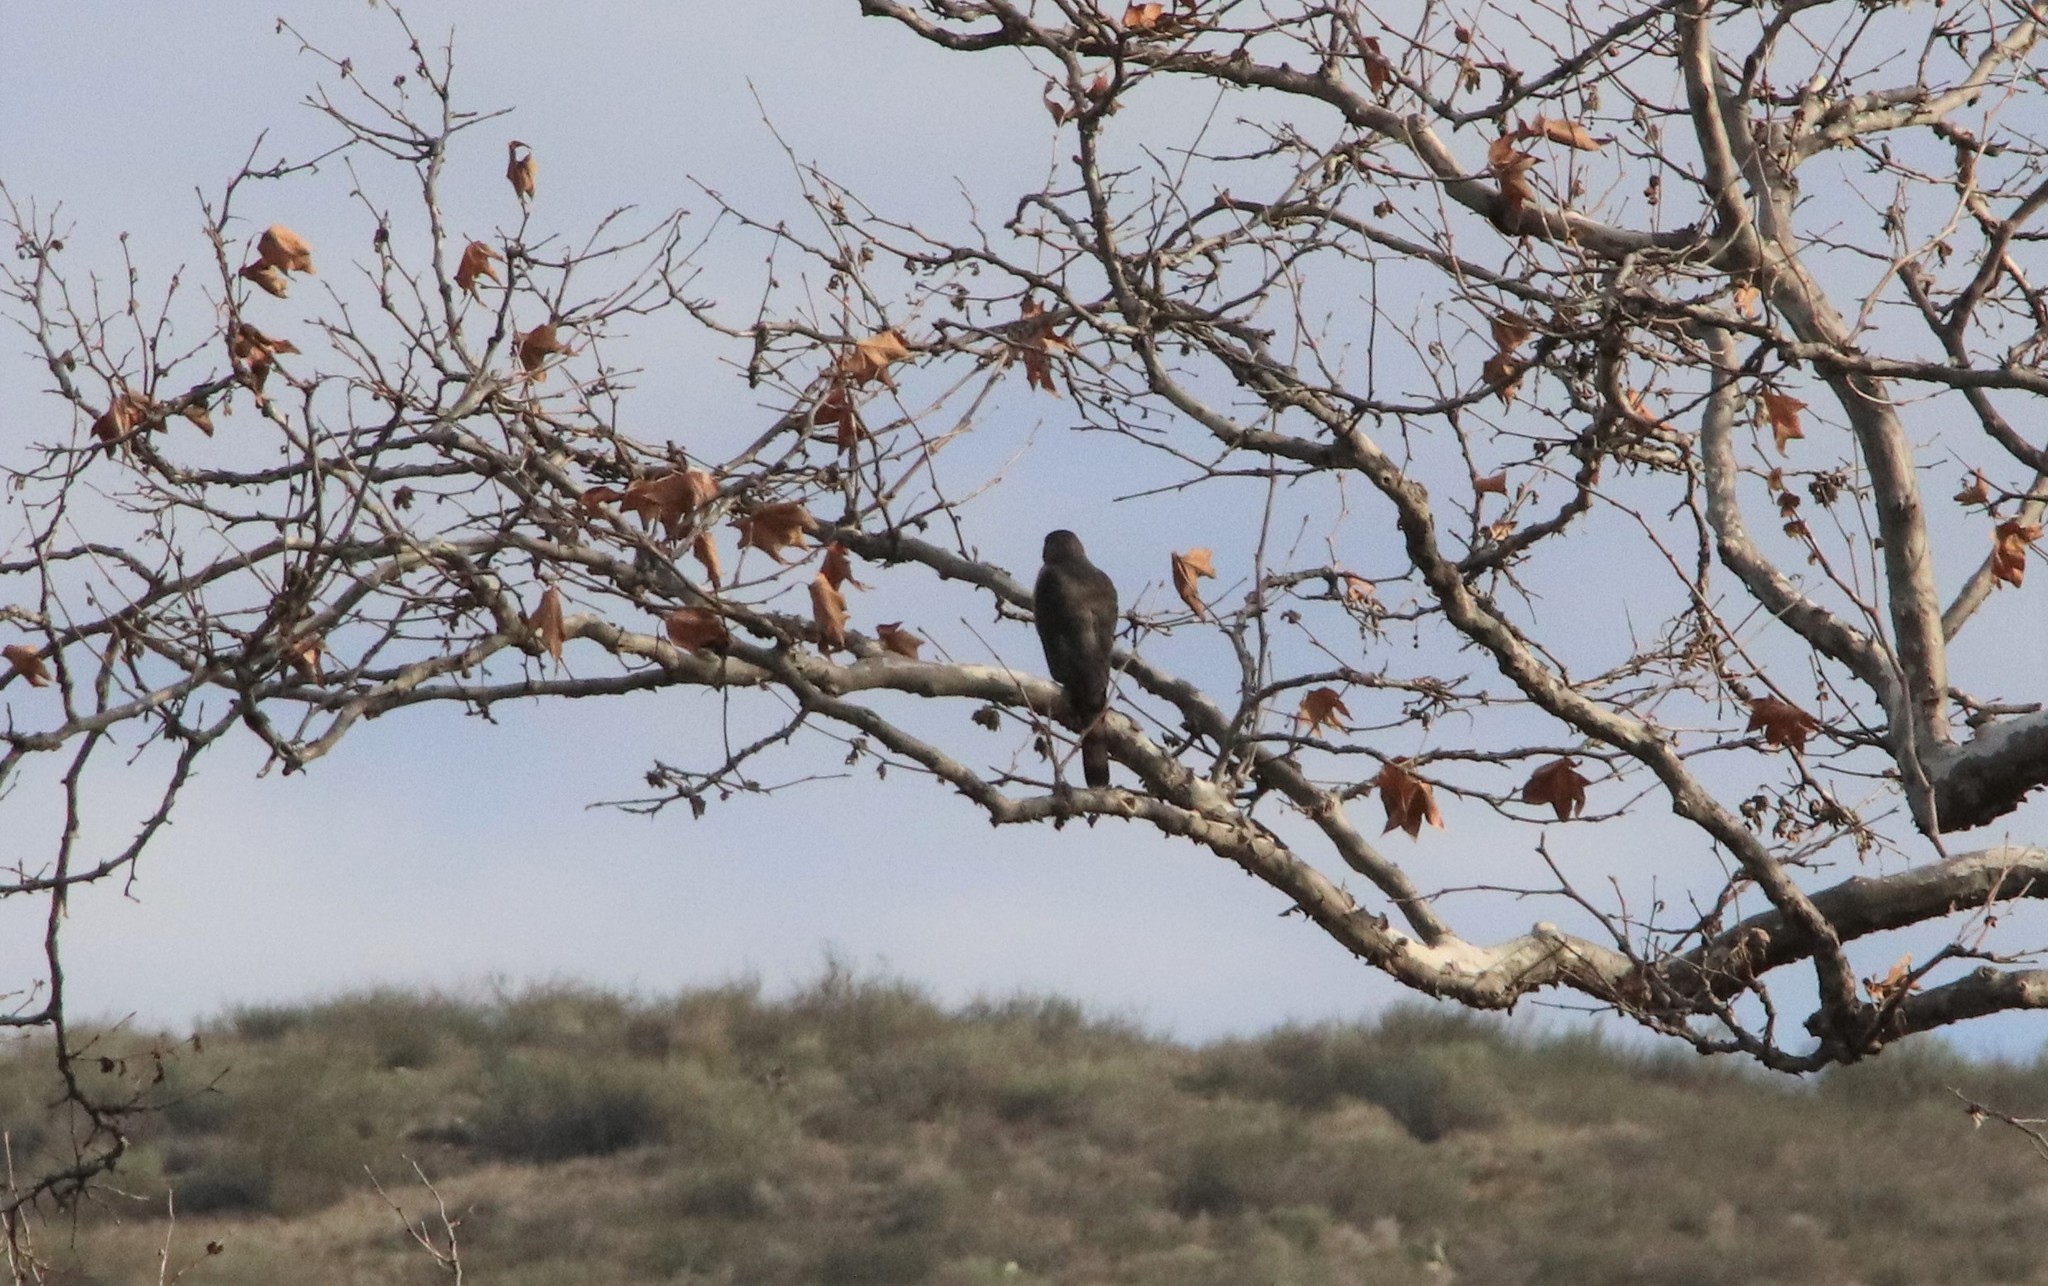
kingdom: Animalia
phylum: Chordata
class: Aves
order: Accipitriformes
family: Accipitridae
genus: Accipiter
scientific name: Accipiter cooperii
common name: Cooper's hawk
